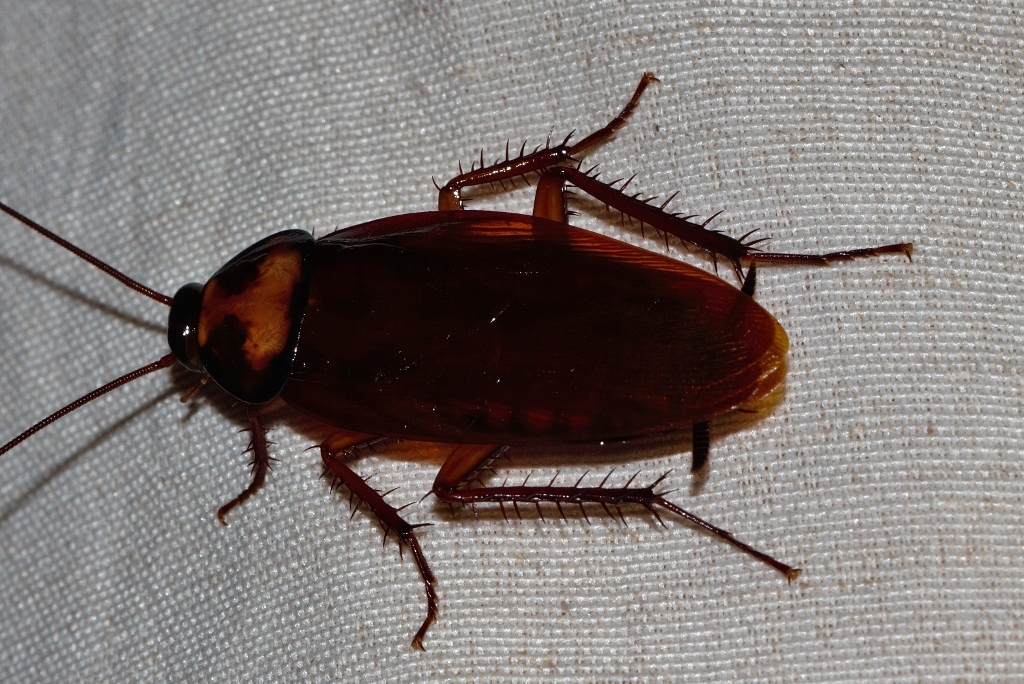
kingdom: Animalia
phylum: Arthropoda
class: Insecta
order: Blattodea
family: Blattidae
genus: Periplaneta
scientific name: Periplaneta brunnea
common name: Brown cockroach
